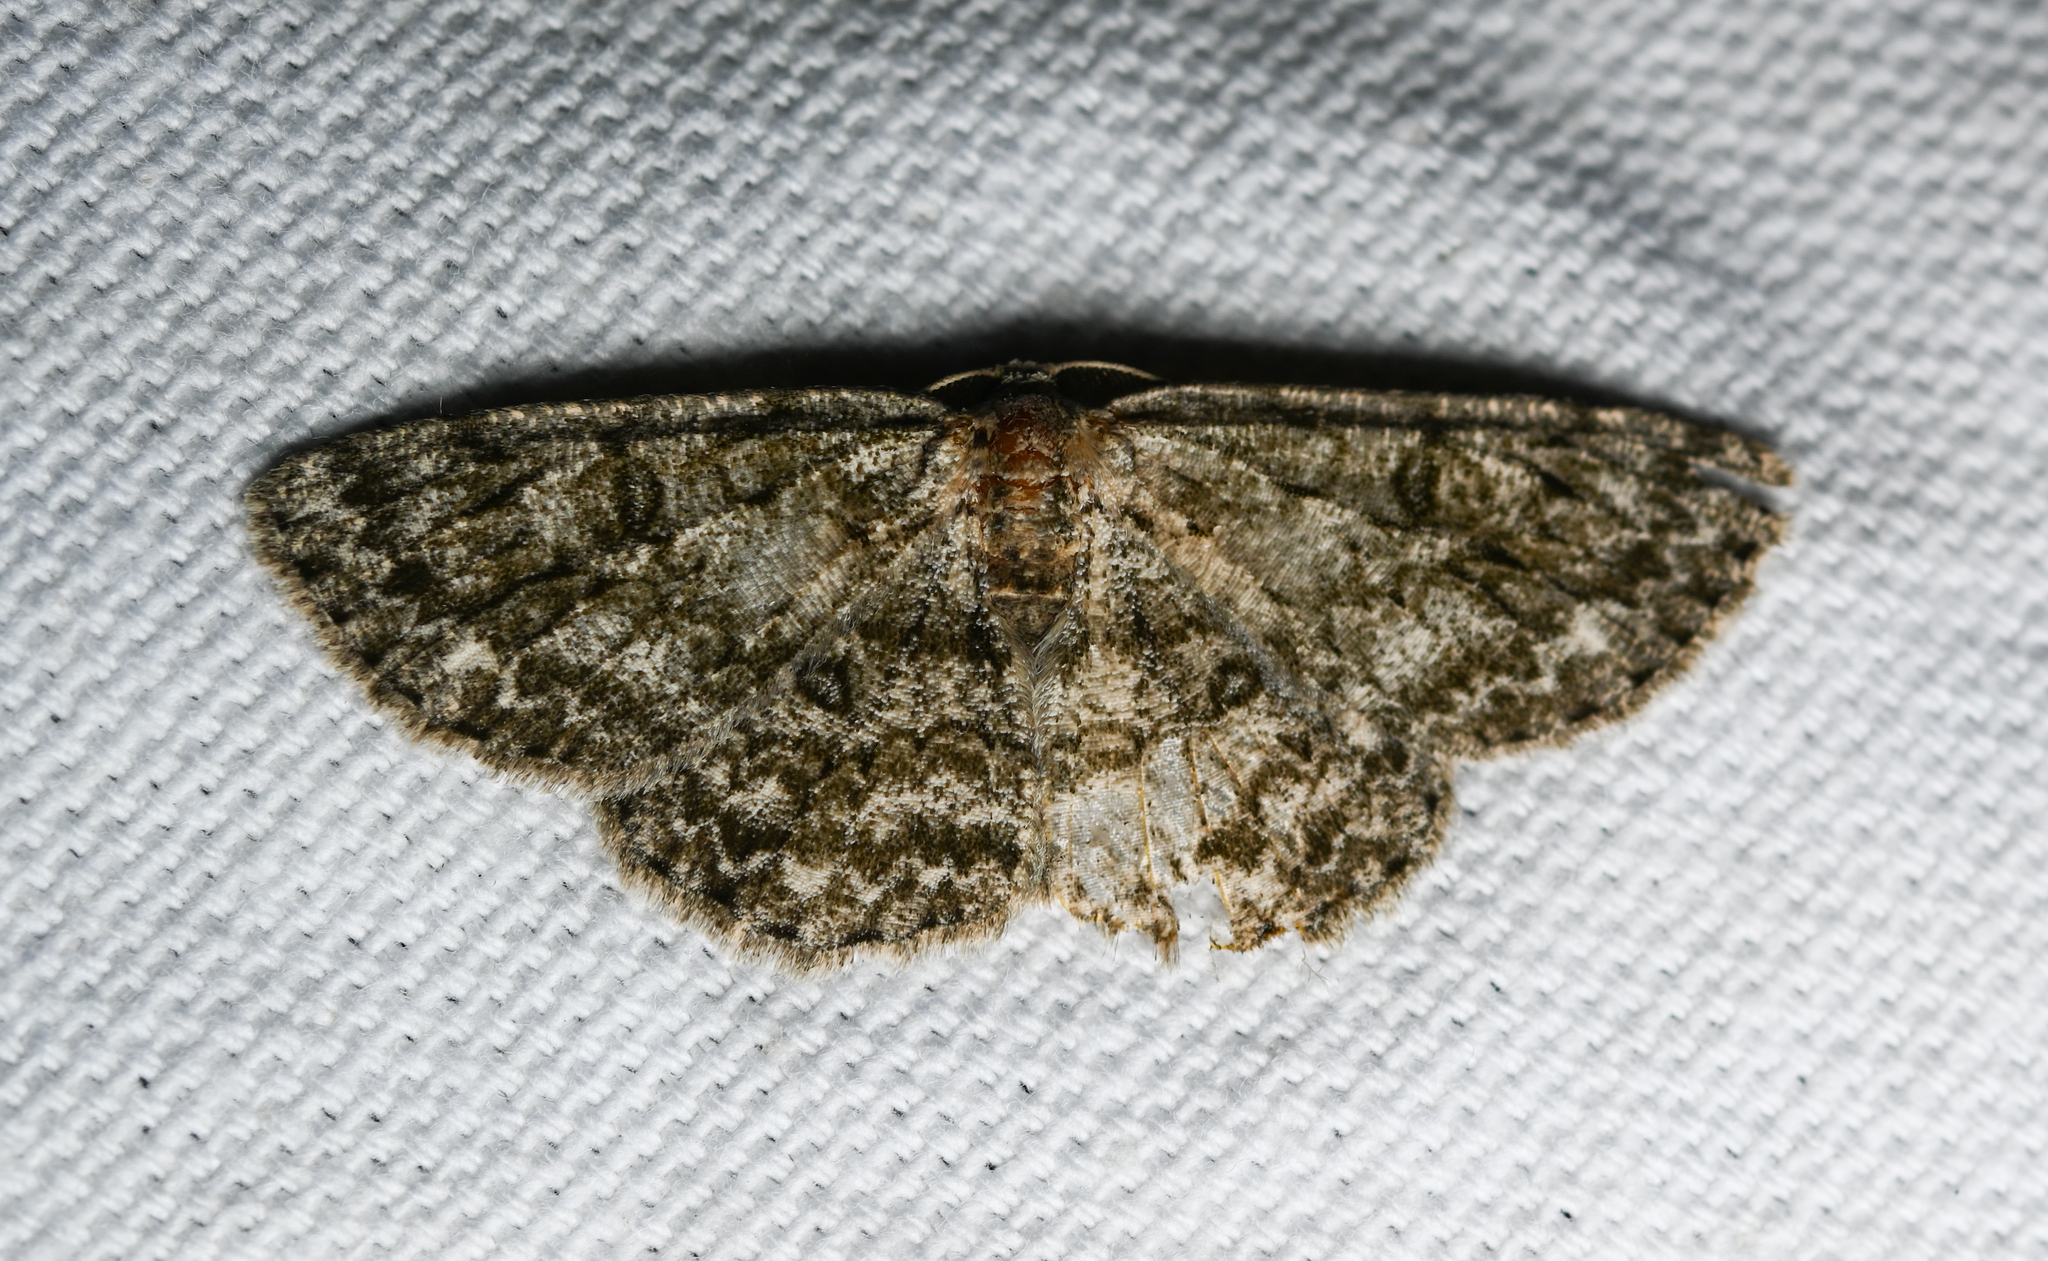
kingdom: Animalia
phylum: Arthropoda
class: Insecta
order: Lepidoptera
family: Geometridae
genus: Hypomecis
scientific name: Hypomecis umbrosaria
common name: Umber moth
